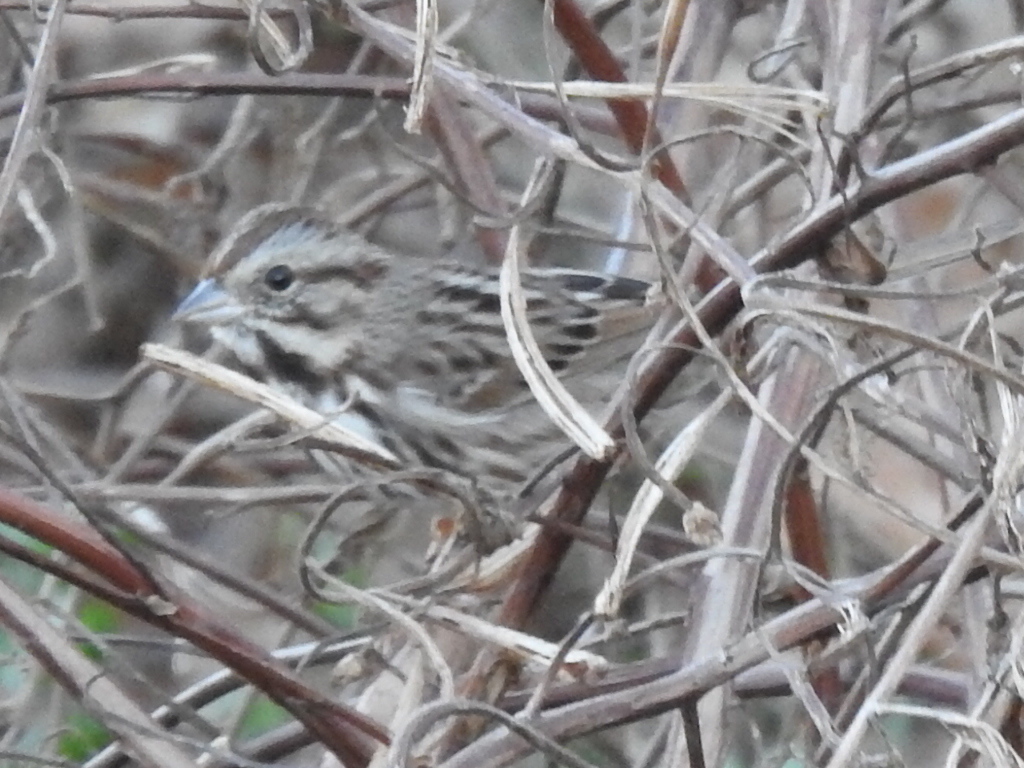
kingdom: Animalia
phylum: Chordata
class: Aves
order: Passeriformes
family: Passerellidae
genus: Melospiza
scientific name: Melospiza melodia
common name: Song sparrow
